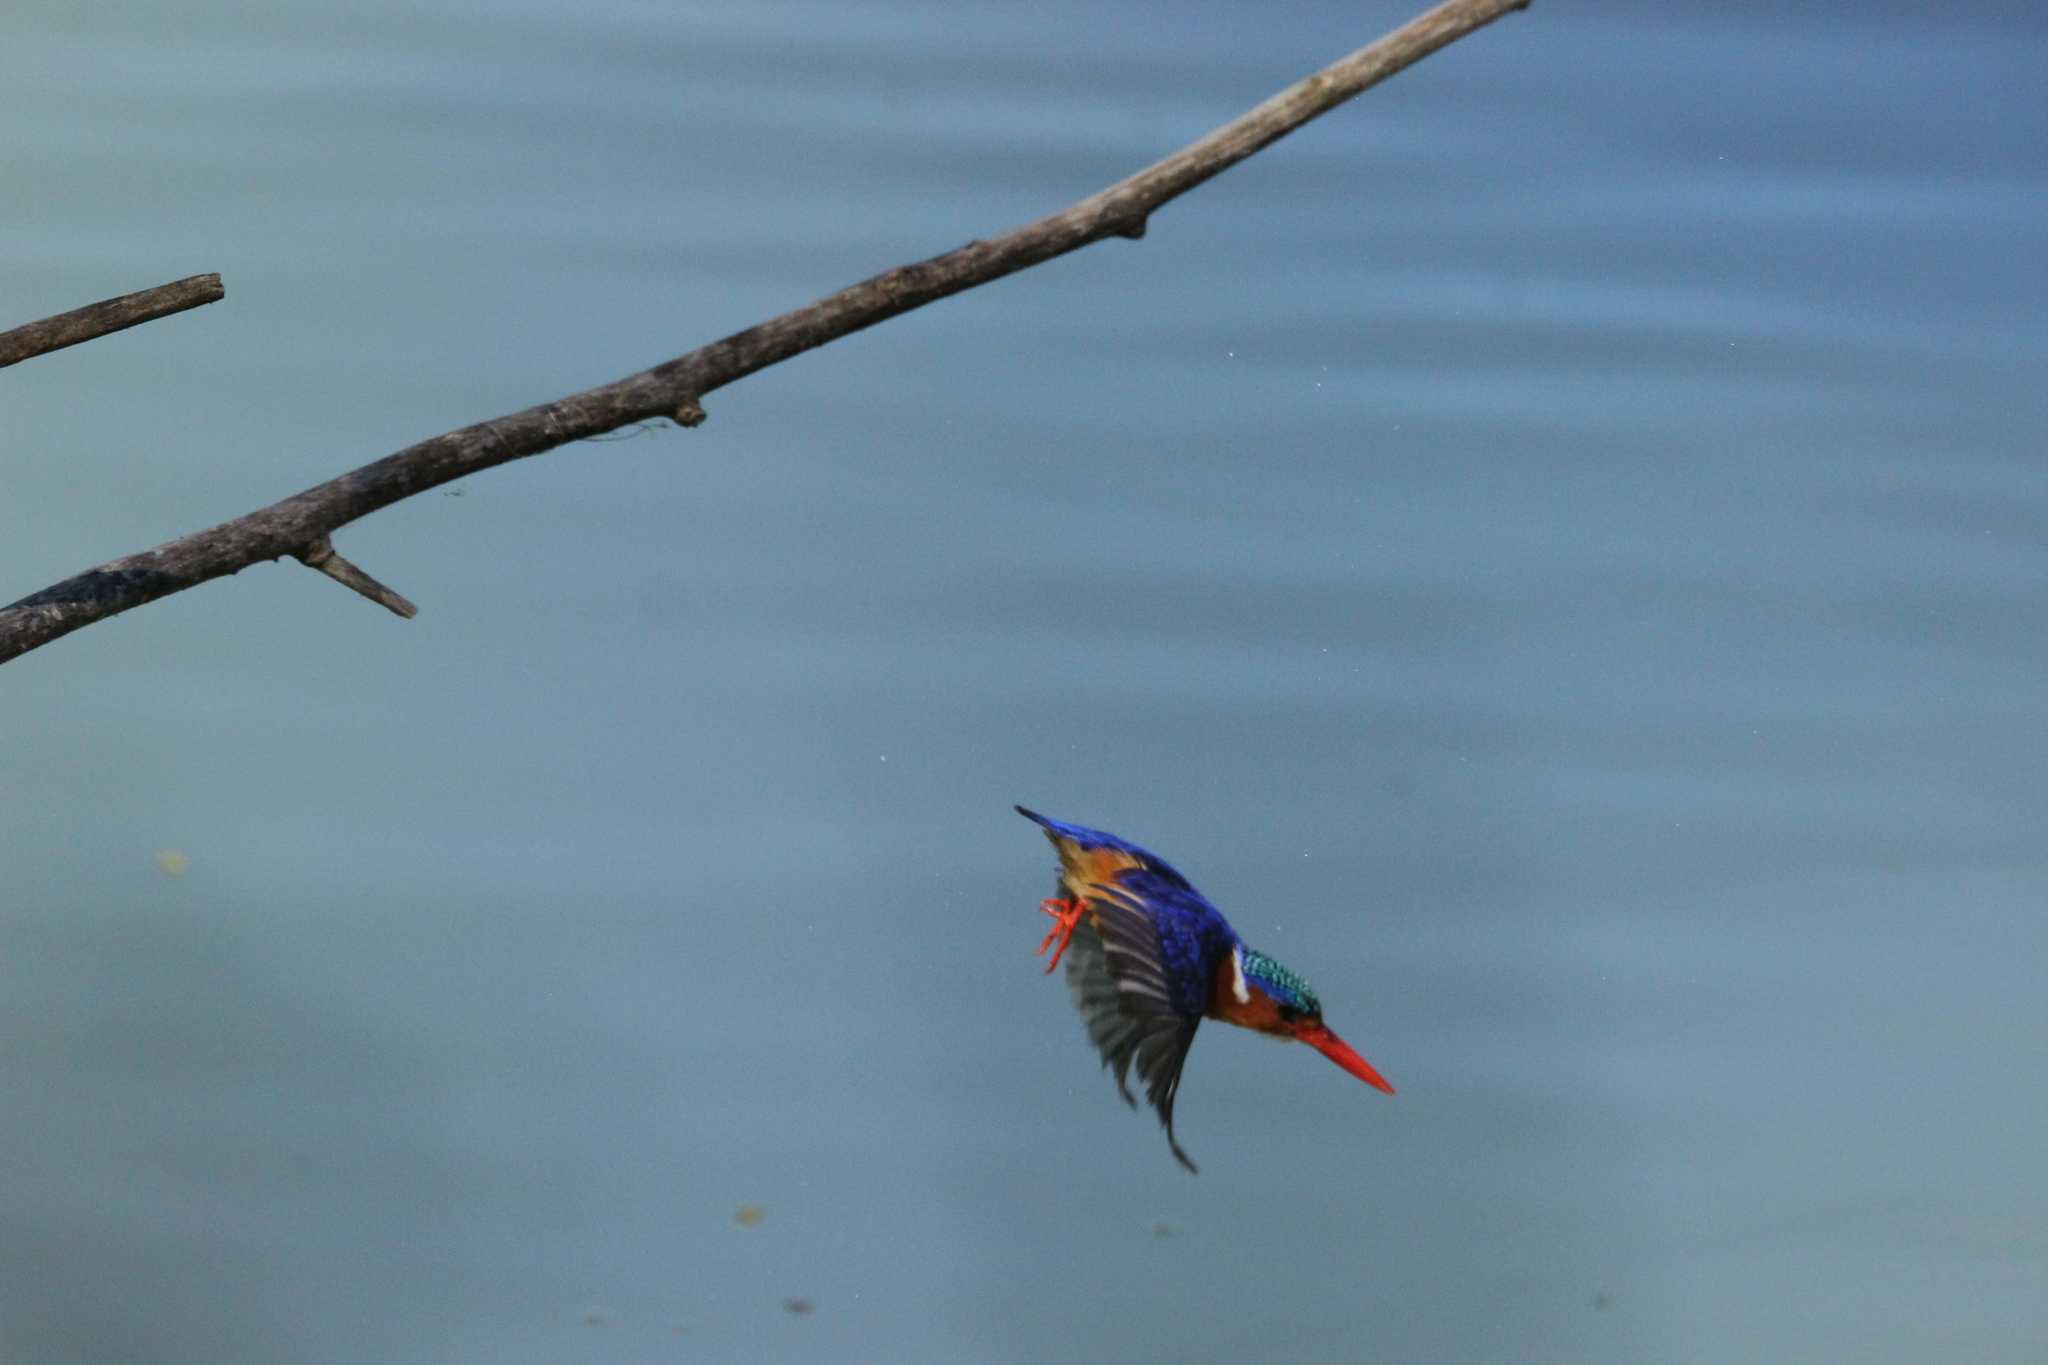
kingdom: Animalia
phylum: Chordata
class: Aves
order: Coraciiformes
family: Alcedinidae
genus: Corythornis
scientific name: Corythornis cristatus
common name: Malachite kingfisher
